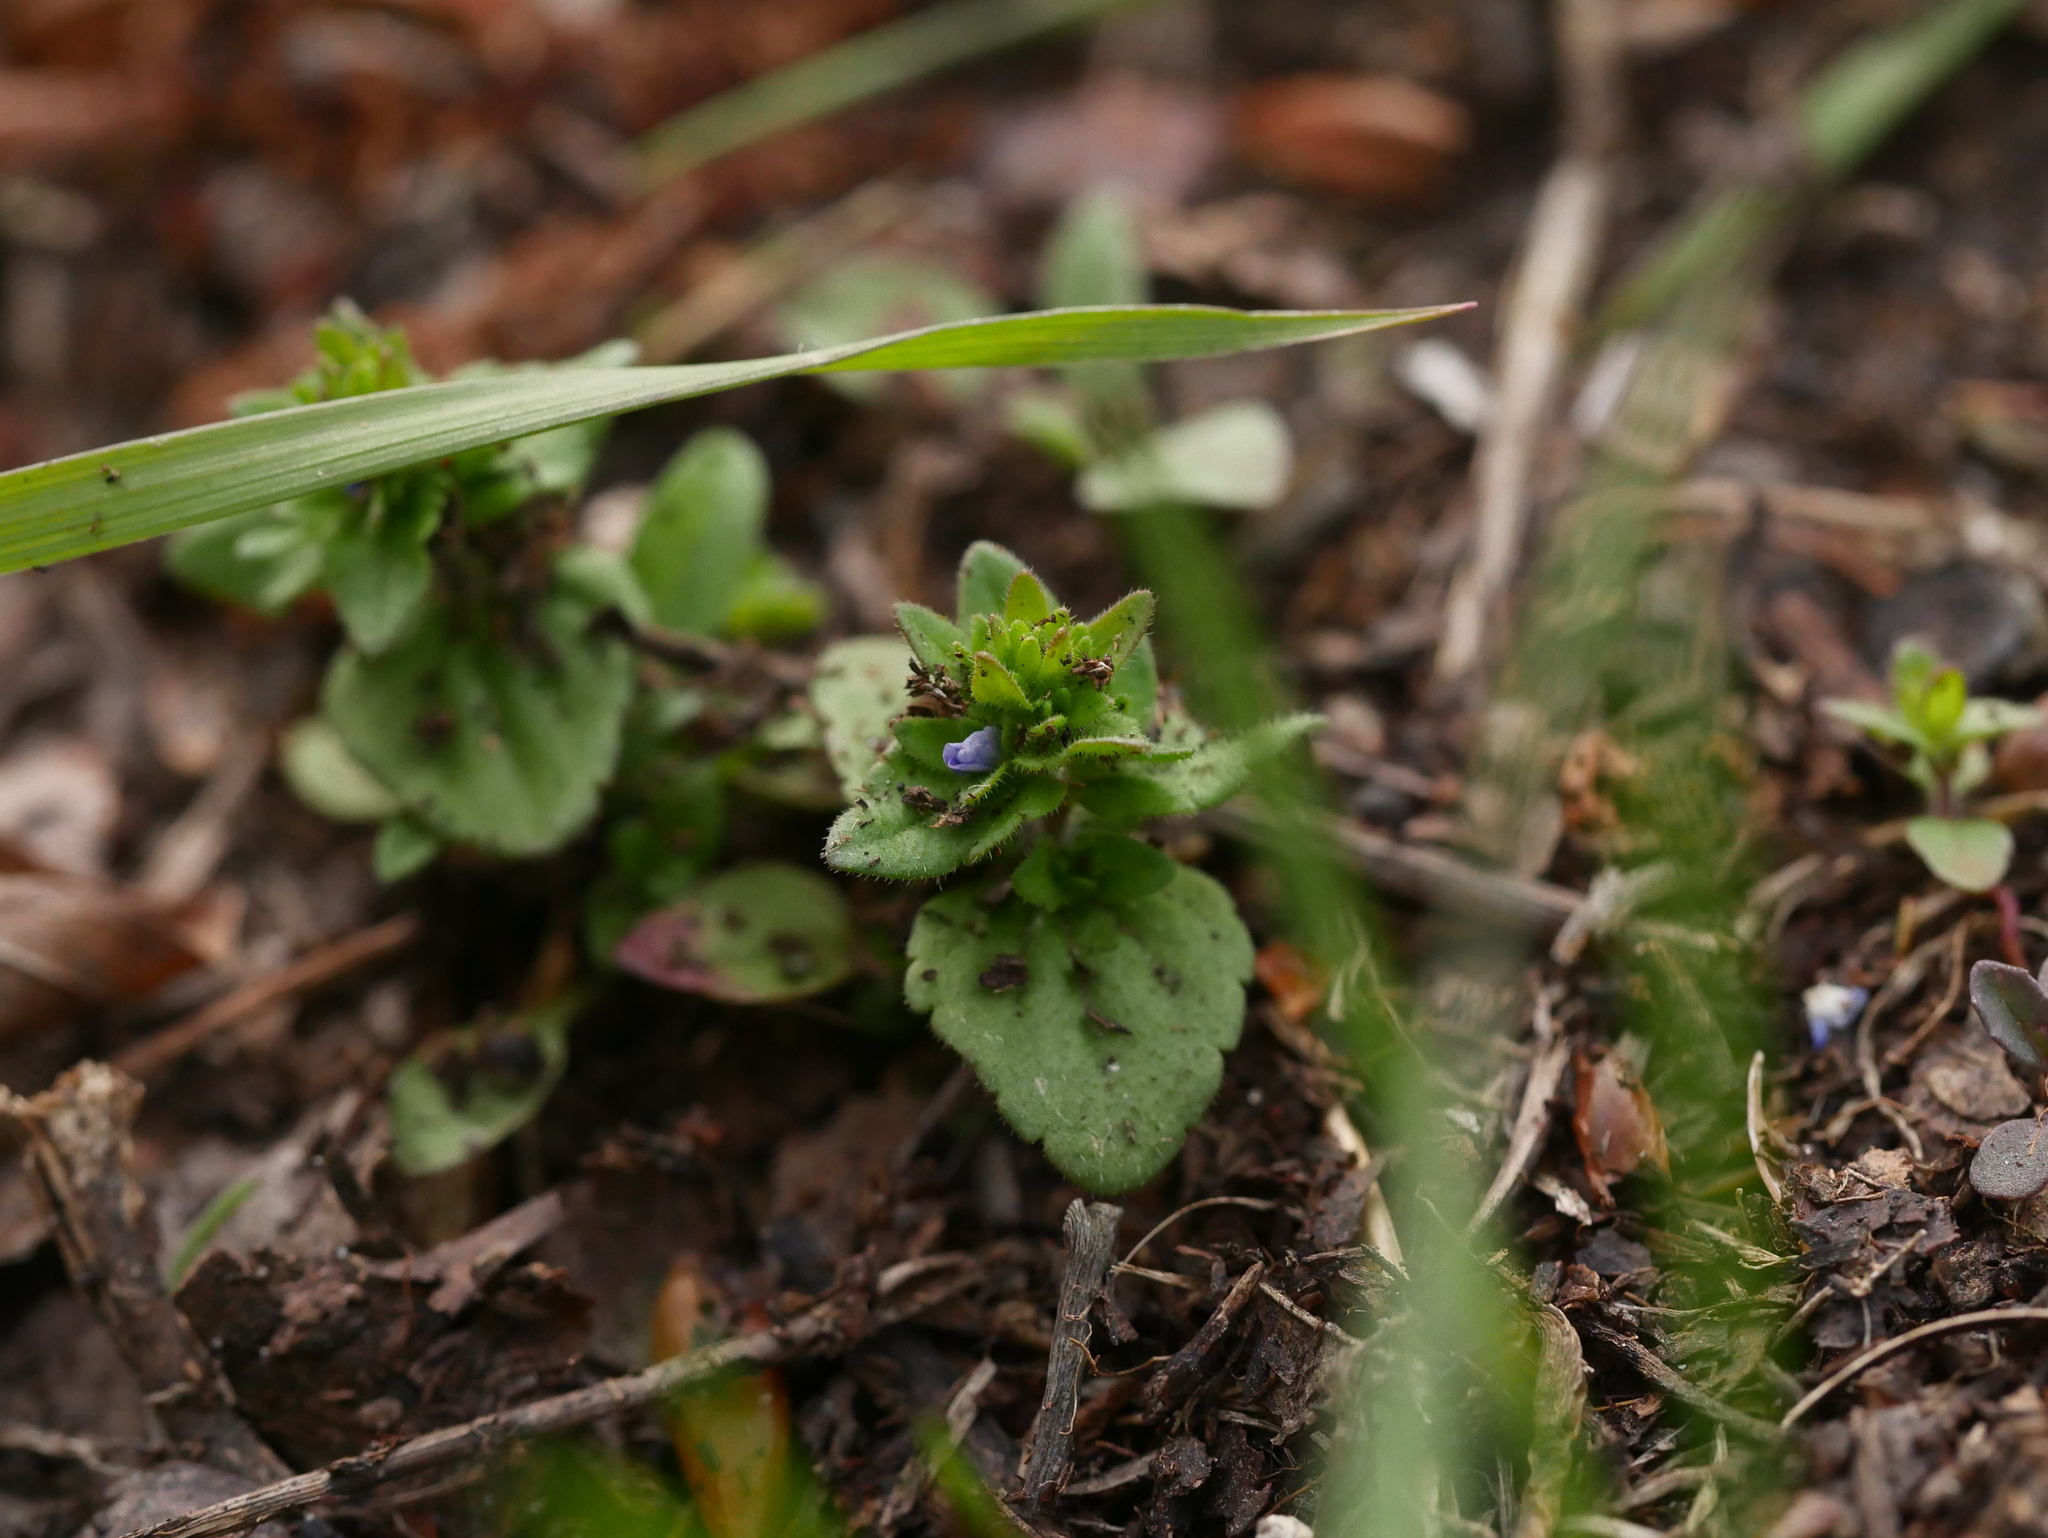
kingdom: Plantae
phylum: Tracheophyta
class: Magnoliopsida
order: Lamiales
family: Plantaginaceae
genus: Veronica
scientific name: Veronica arvensis
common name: Corn speedwell
